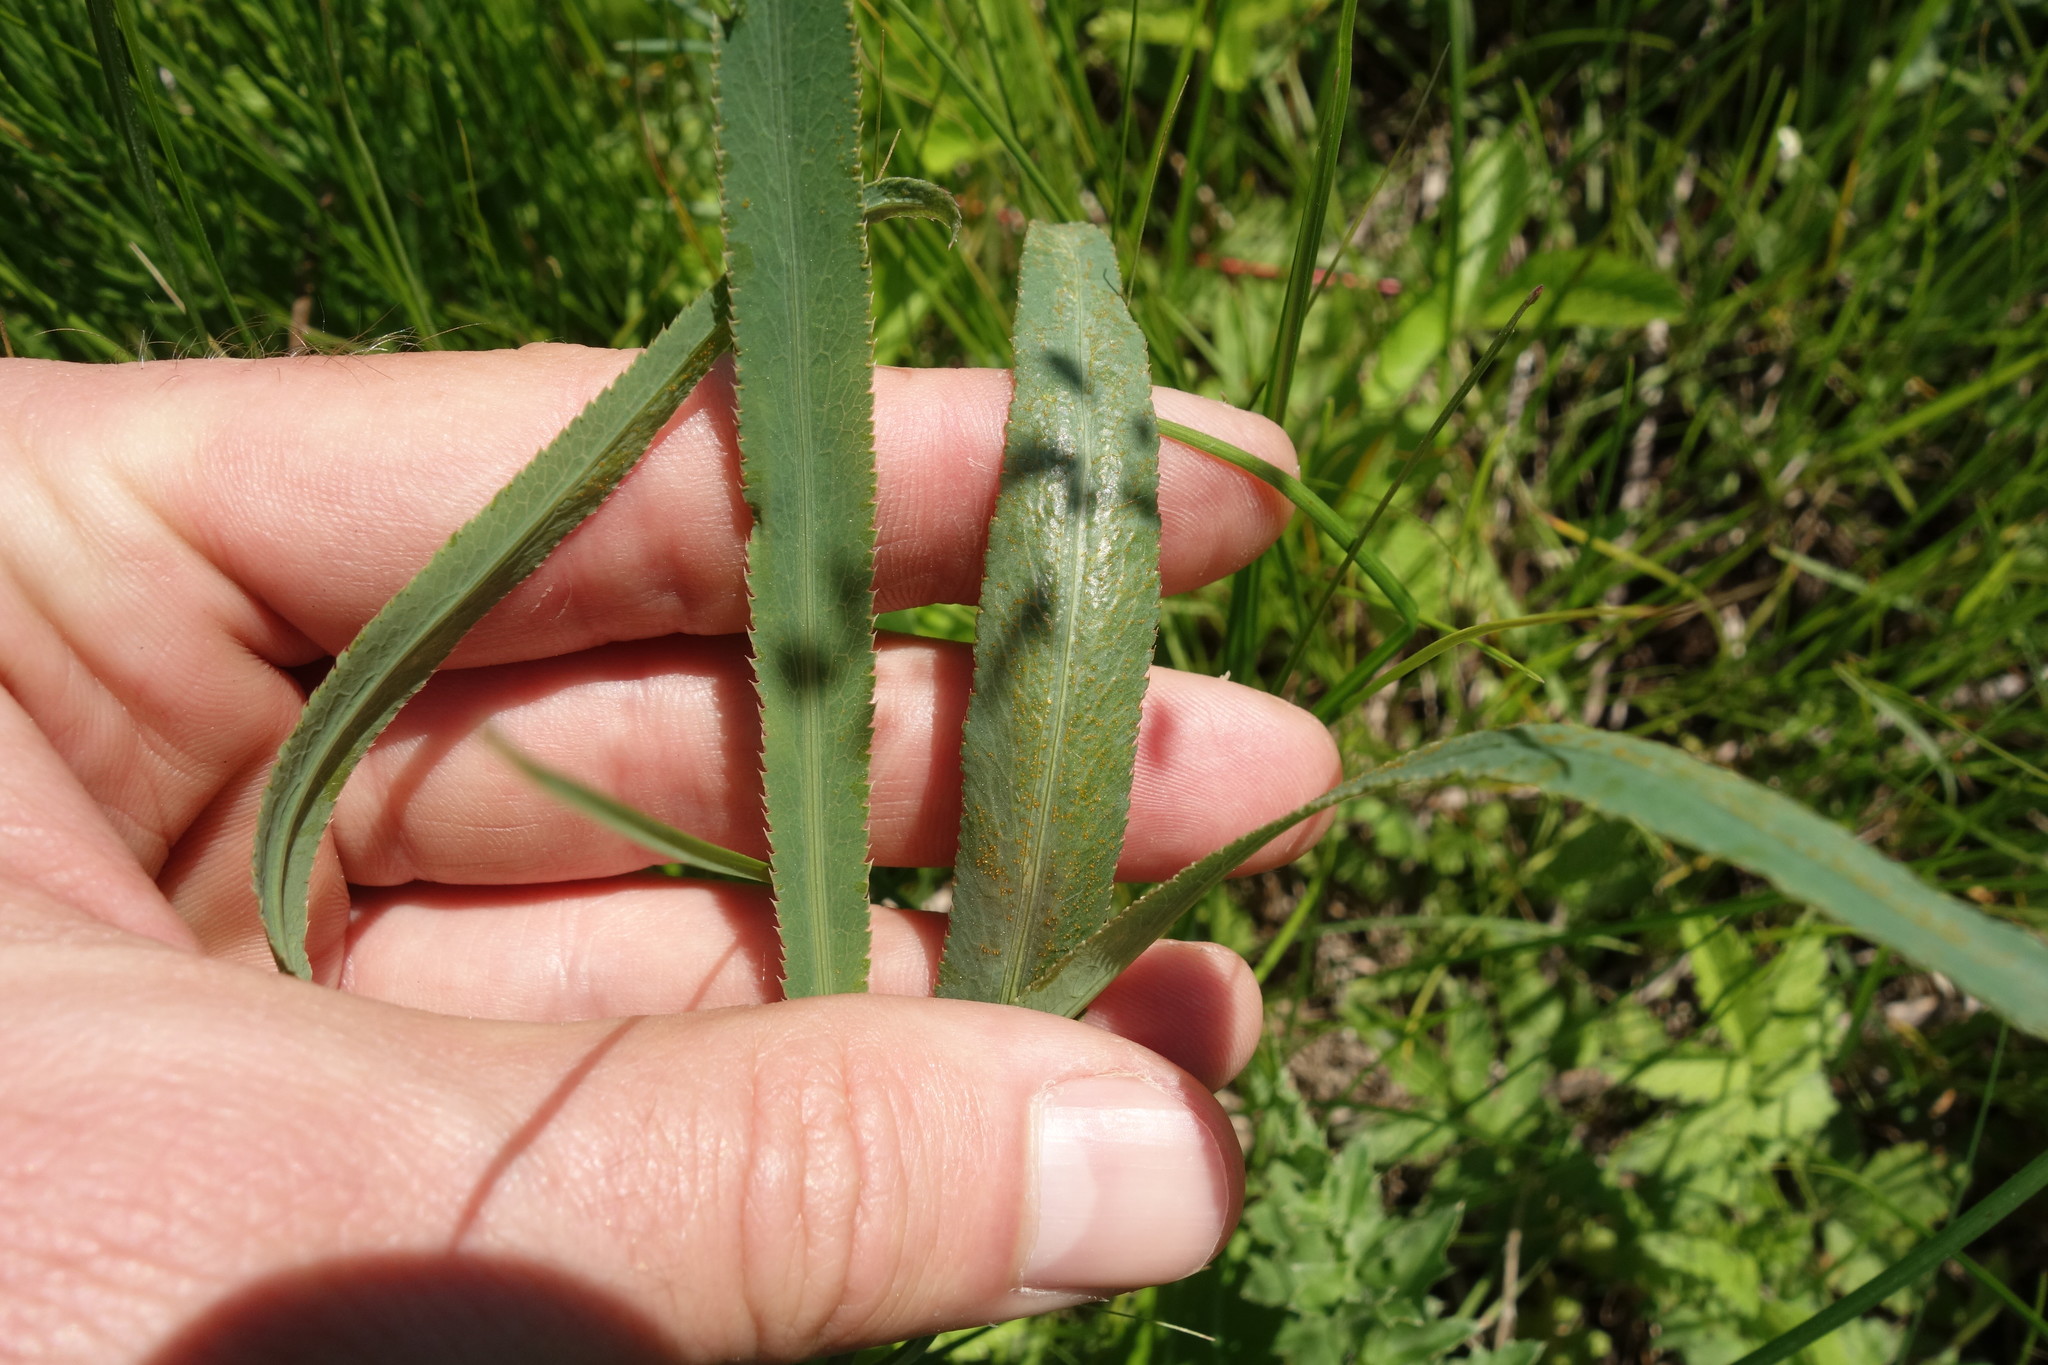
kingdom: Plantae
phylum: Tracheophyta
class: Magnoliopsida
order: Apiales
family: Apiaceae
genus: Falcaria
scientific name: Falcaria vulgaris
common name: Longleaf
